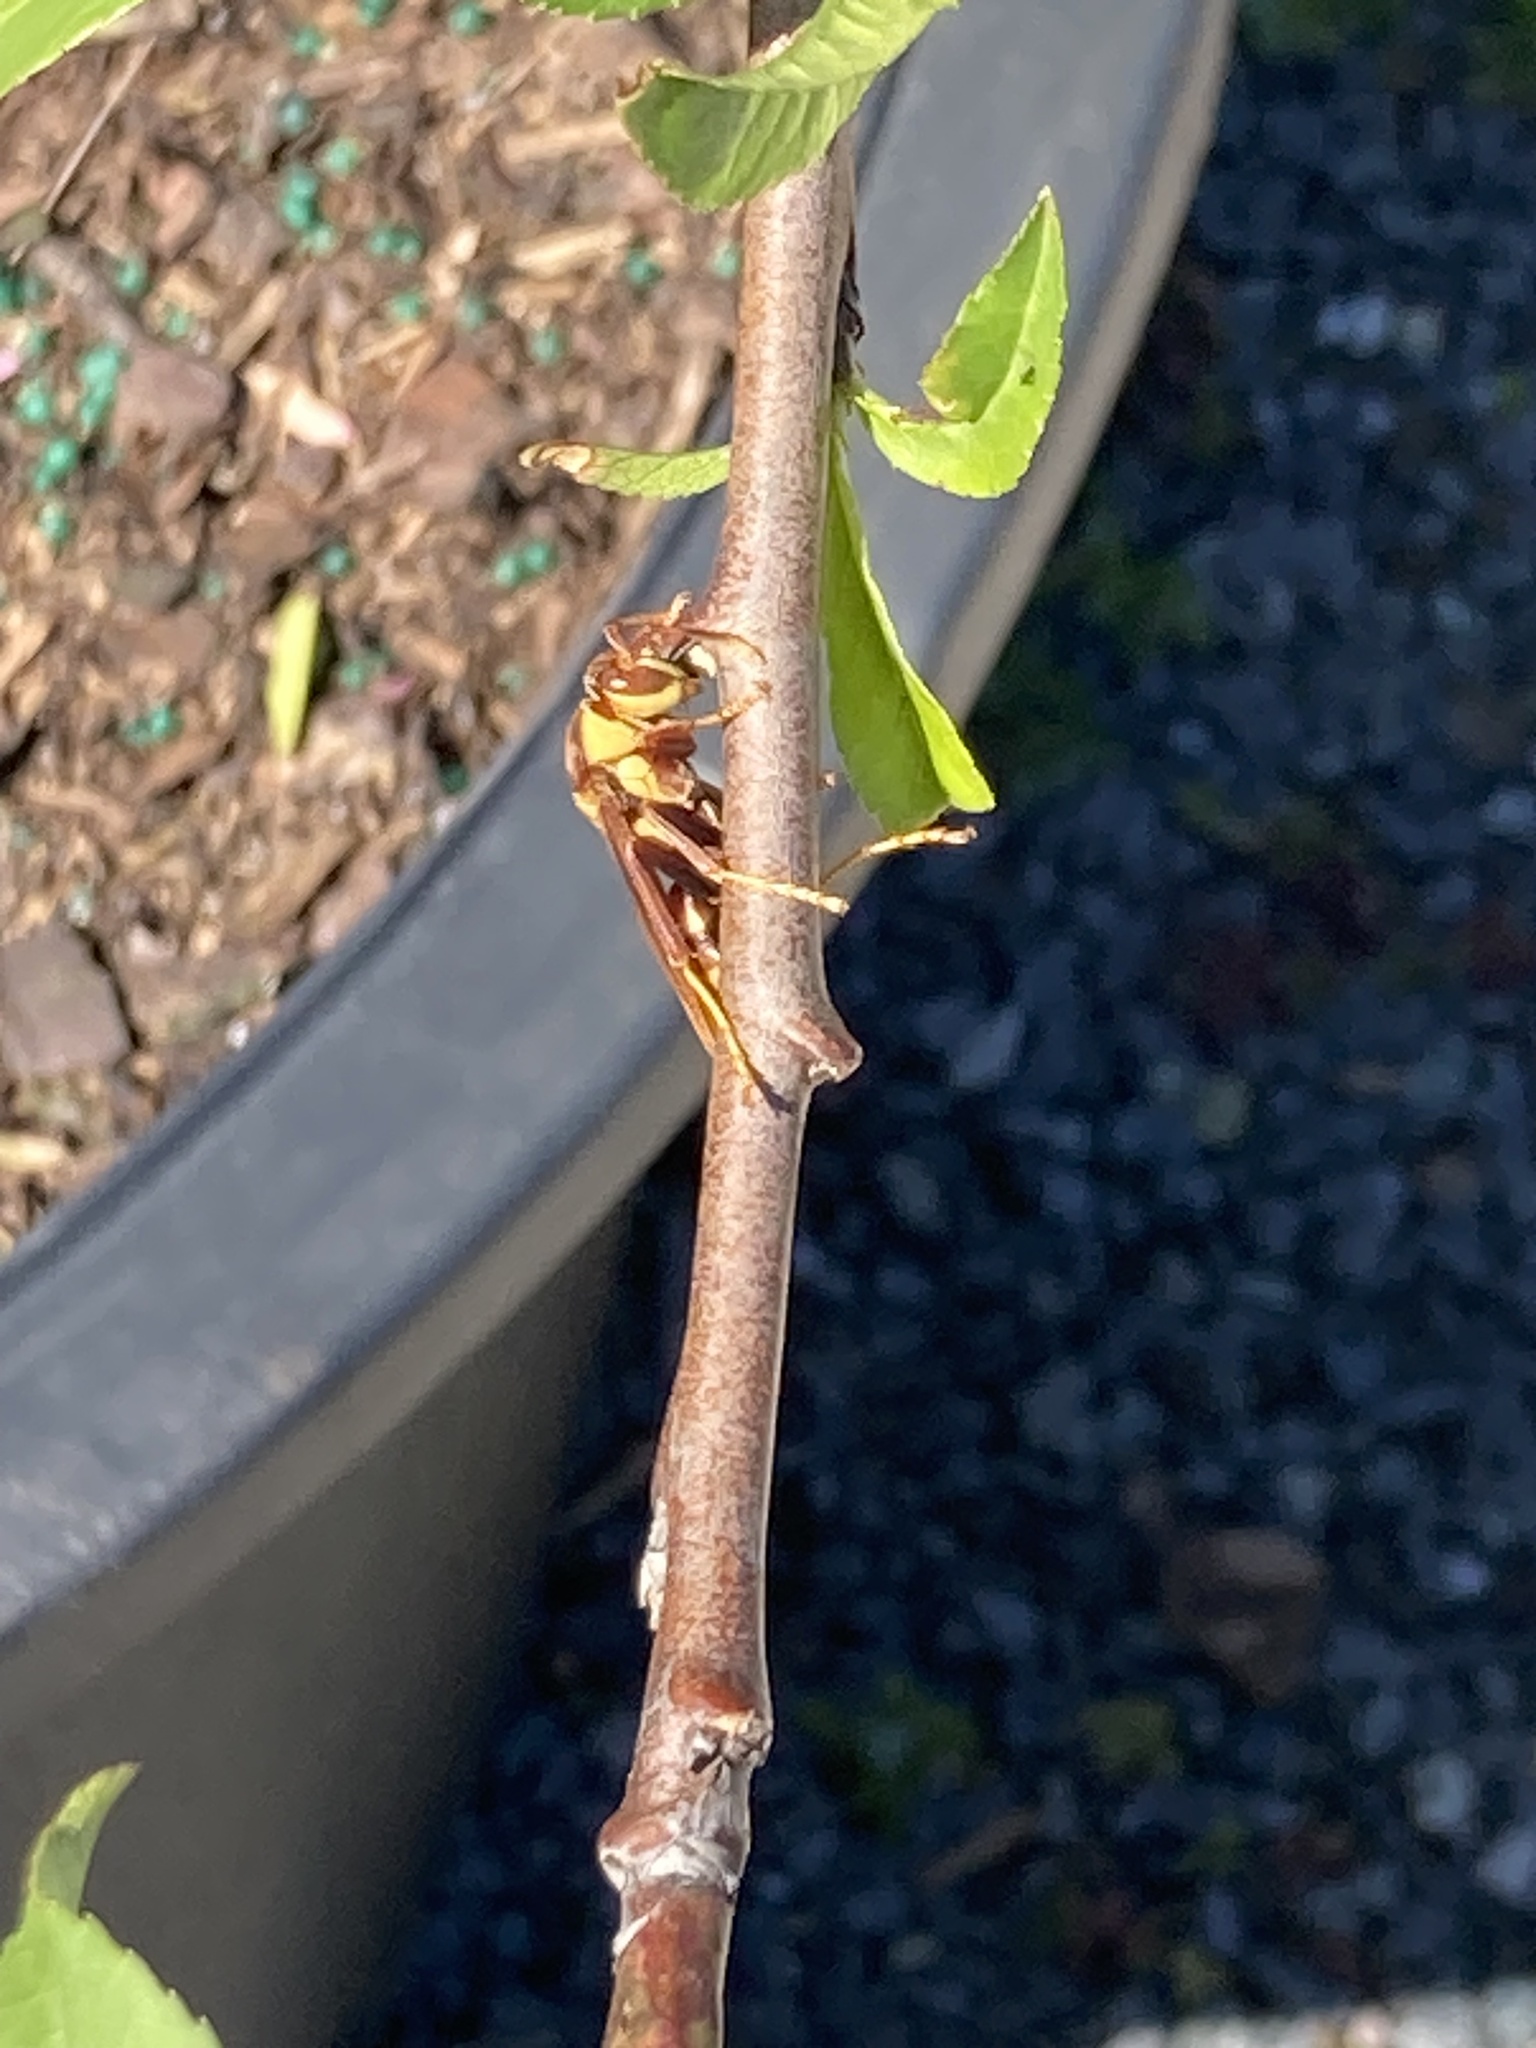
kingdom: Animalia
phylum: Arthropoda
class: Insecta
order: Hymenoptera
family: Eumenidae
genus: Polistes
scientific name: Polistes major
